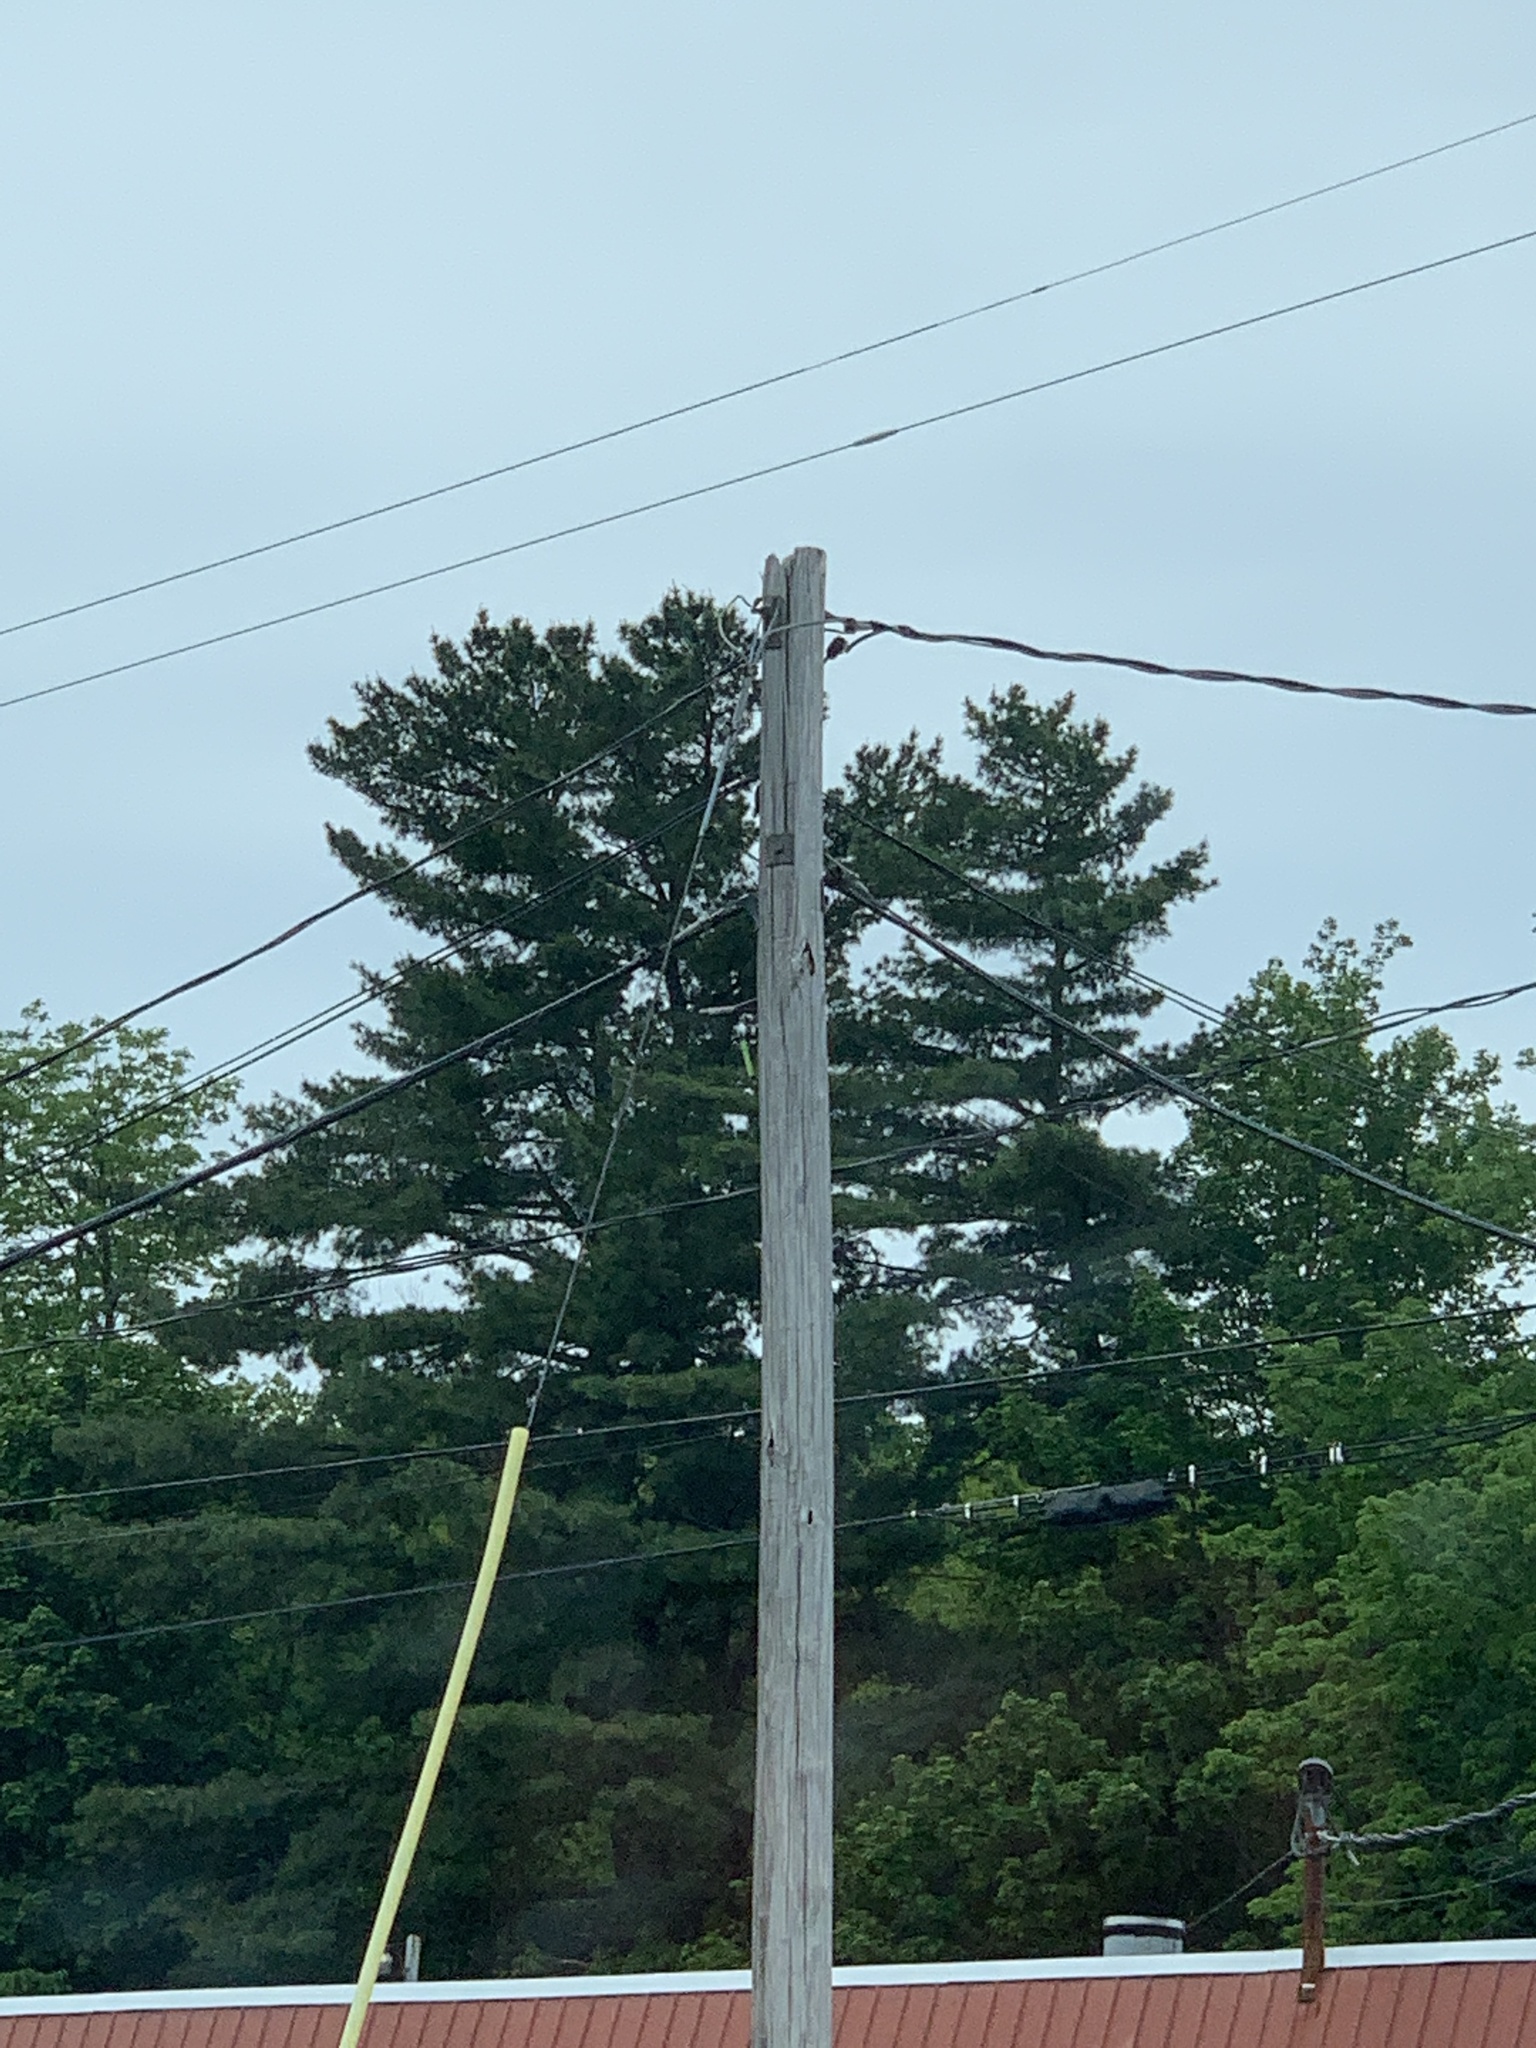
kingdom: Plantae
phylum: Tracheophyta
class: Pinopsida
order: Pinales
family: Pinaceae
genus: Pinus
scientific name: Pinus strobus
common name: Weymouth pine
